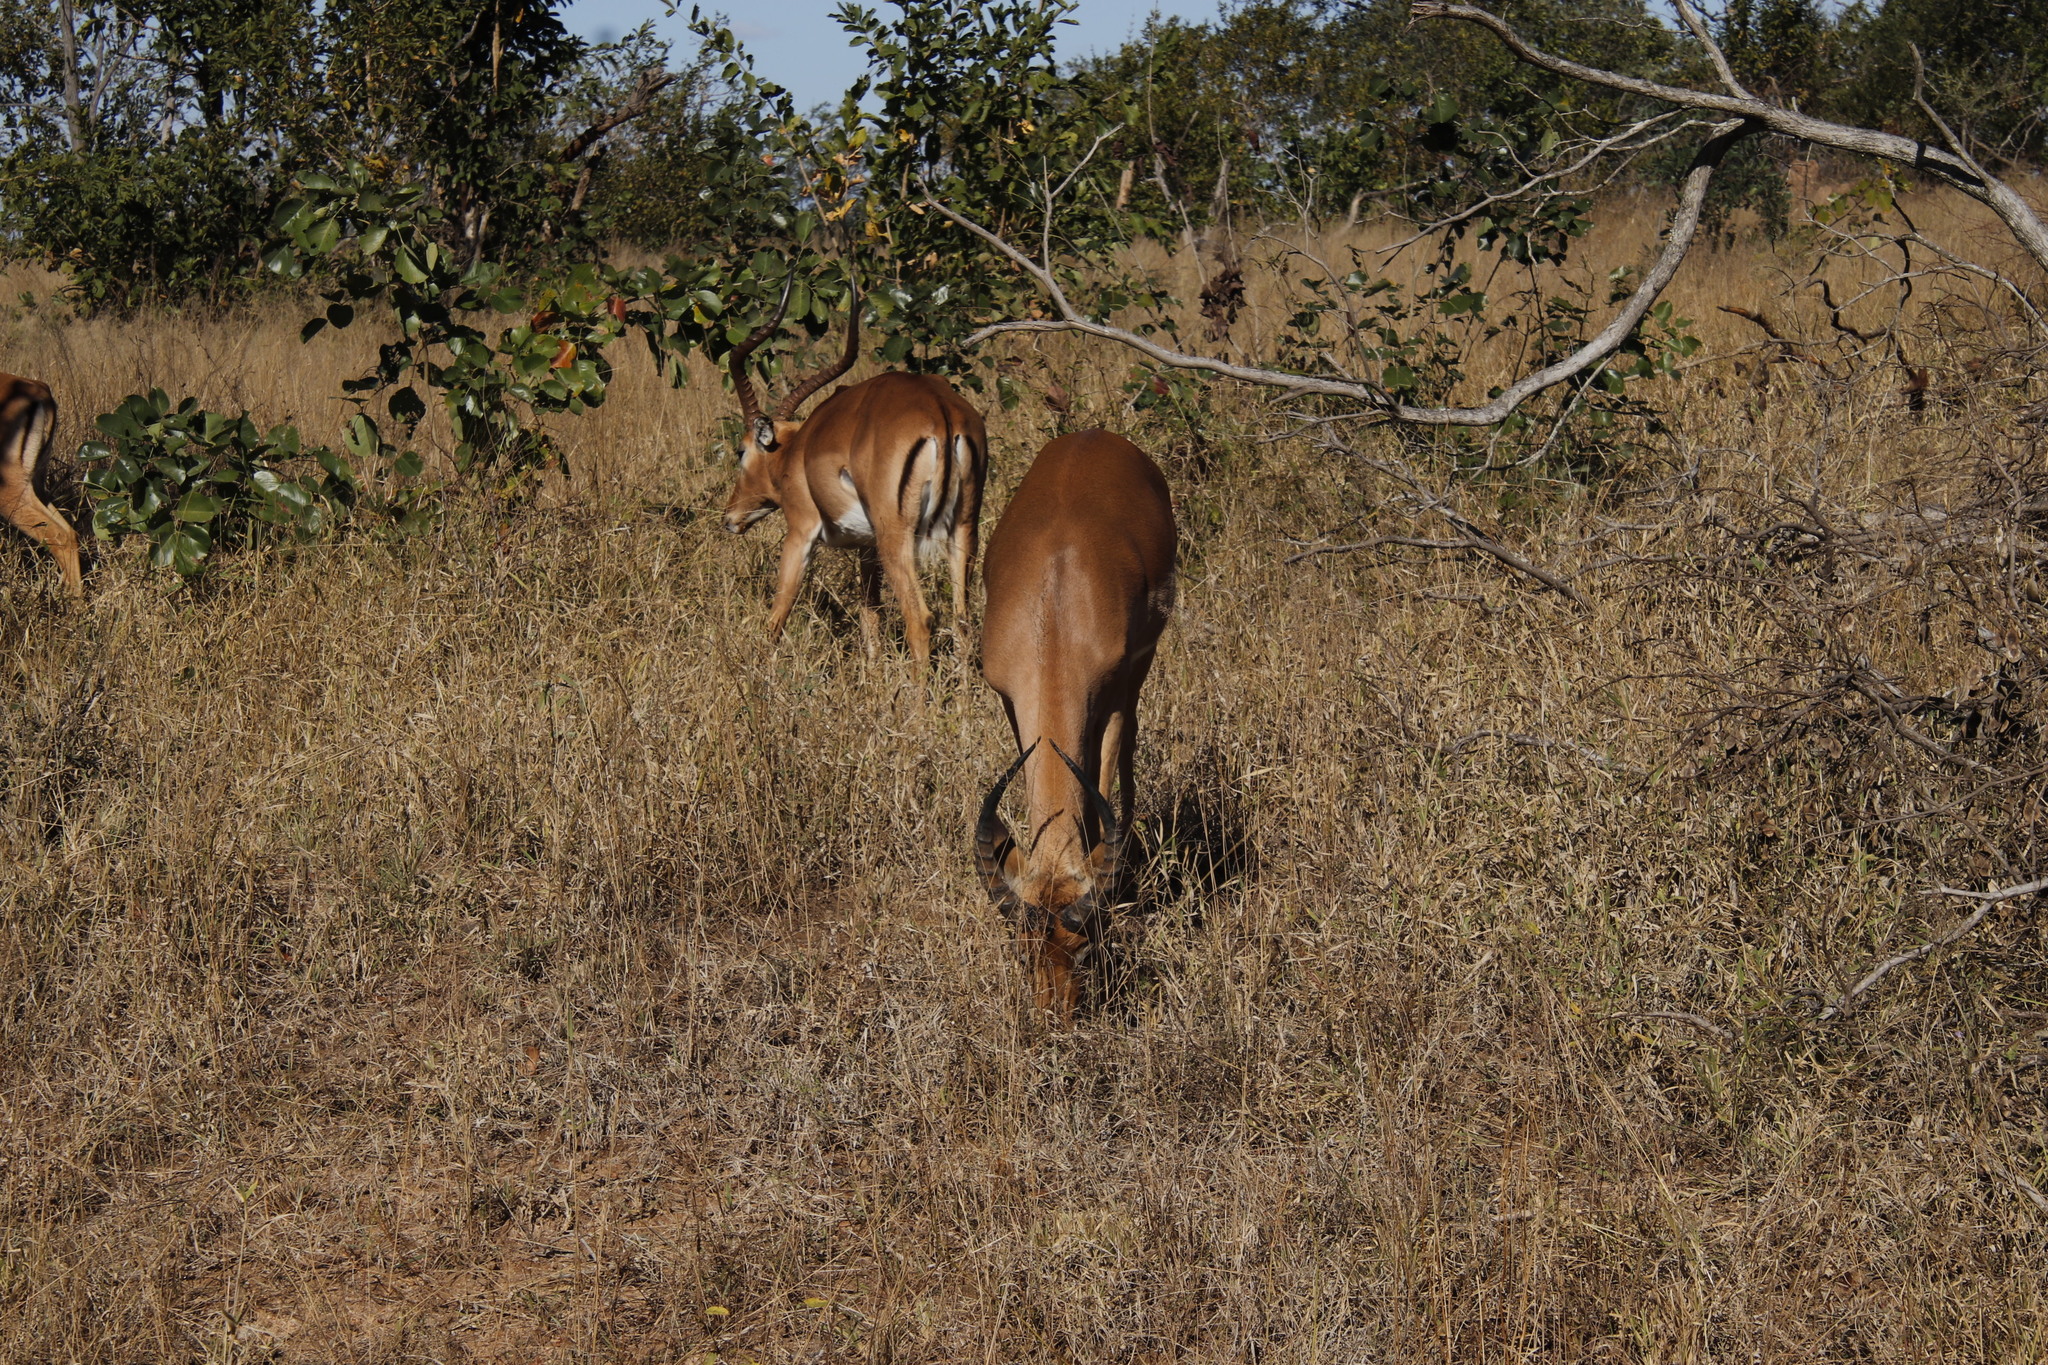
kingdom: Animalia
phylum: Chordata
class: Mammalia
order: Artiodactyla
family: Bovidae
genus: Aepyceros
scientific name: Aepyceros melampus
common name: Impala
